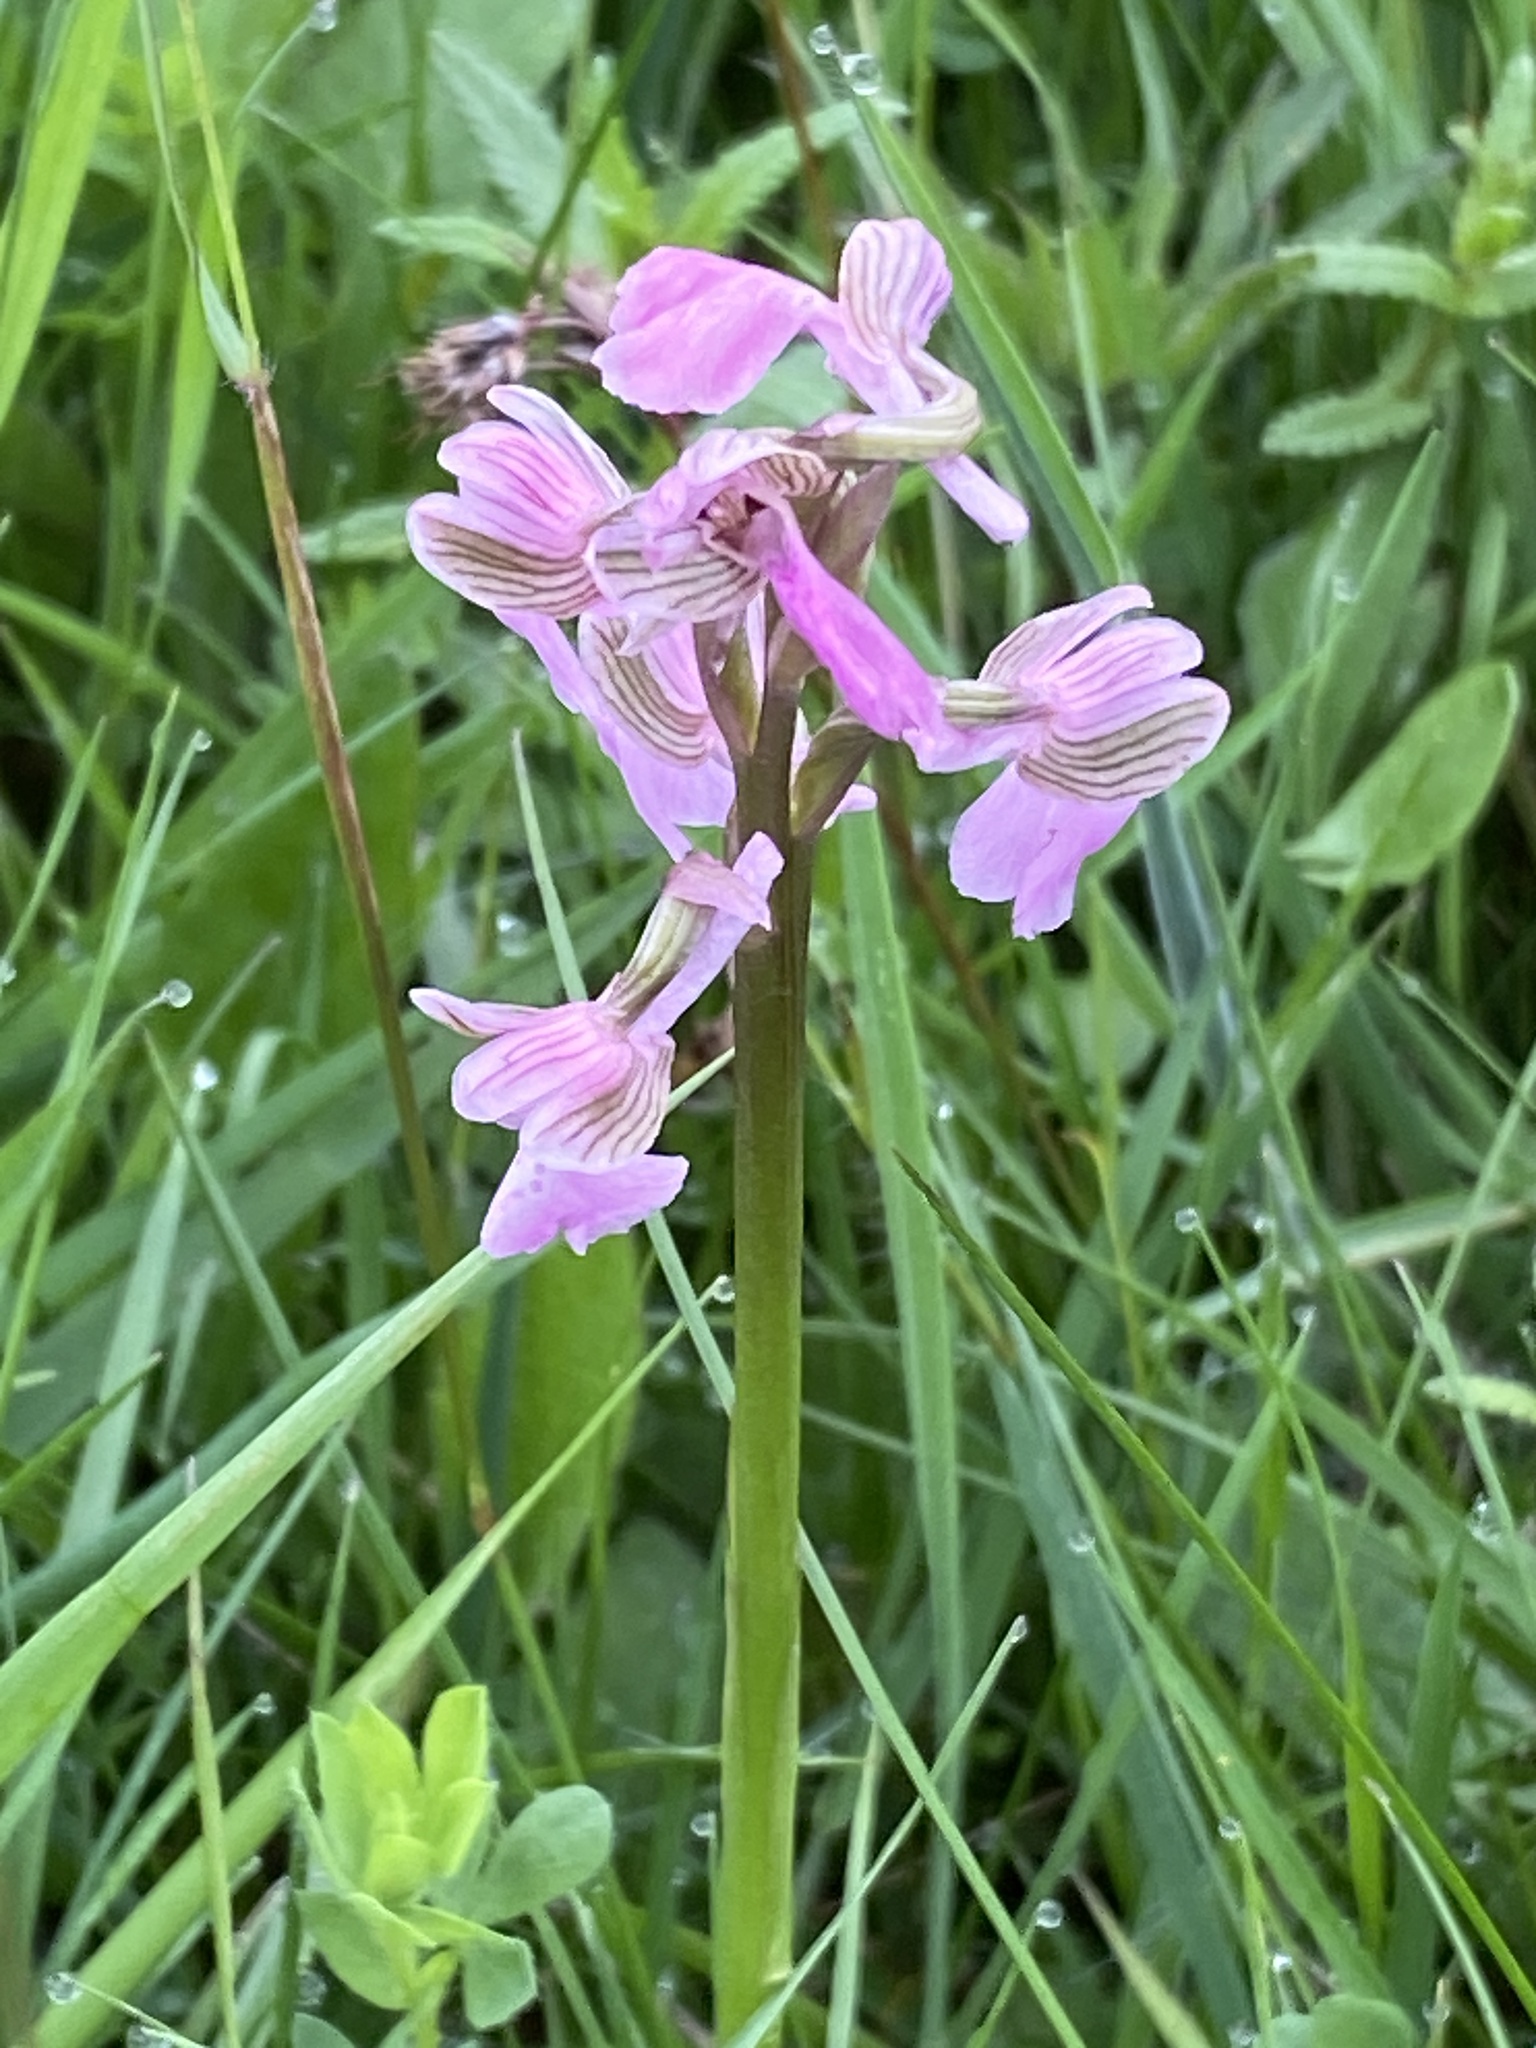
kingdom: Plantae
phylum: Tracheophyta
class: Liliopsida
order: Asparagales
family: Orchidaceae
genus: Anacamptis
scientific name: Anacamptis morio
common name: Green-winged orchid
